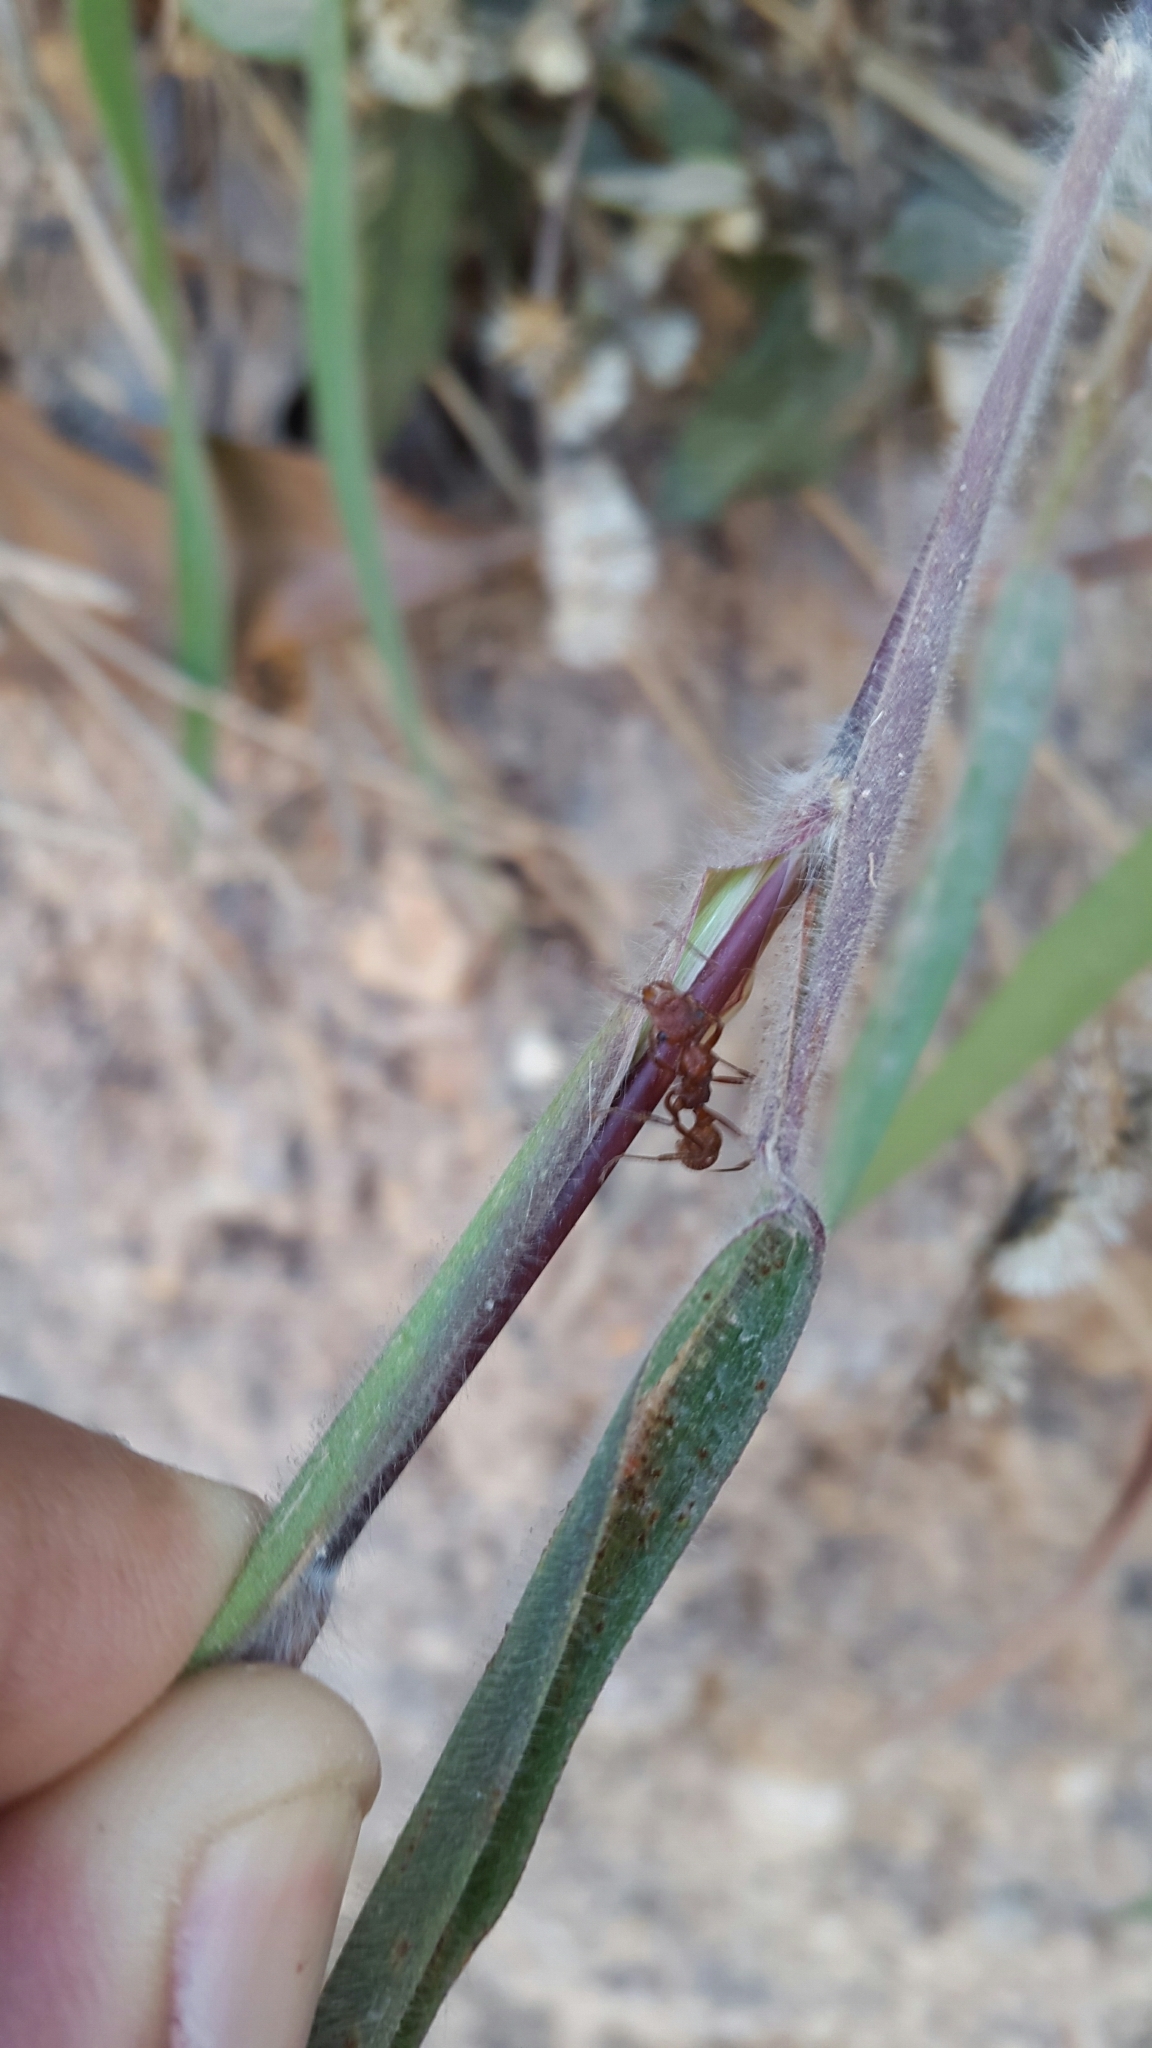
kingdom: Animalia
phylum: Arthropoda
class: Insecta
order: Hymenoptera
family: Formicidae
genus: Ectatomma
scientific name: Ectatomma tuberculatum
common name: Ant
